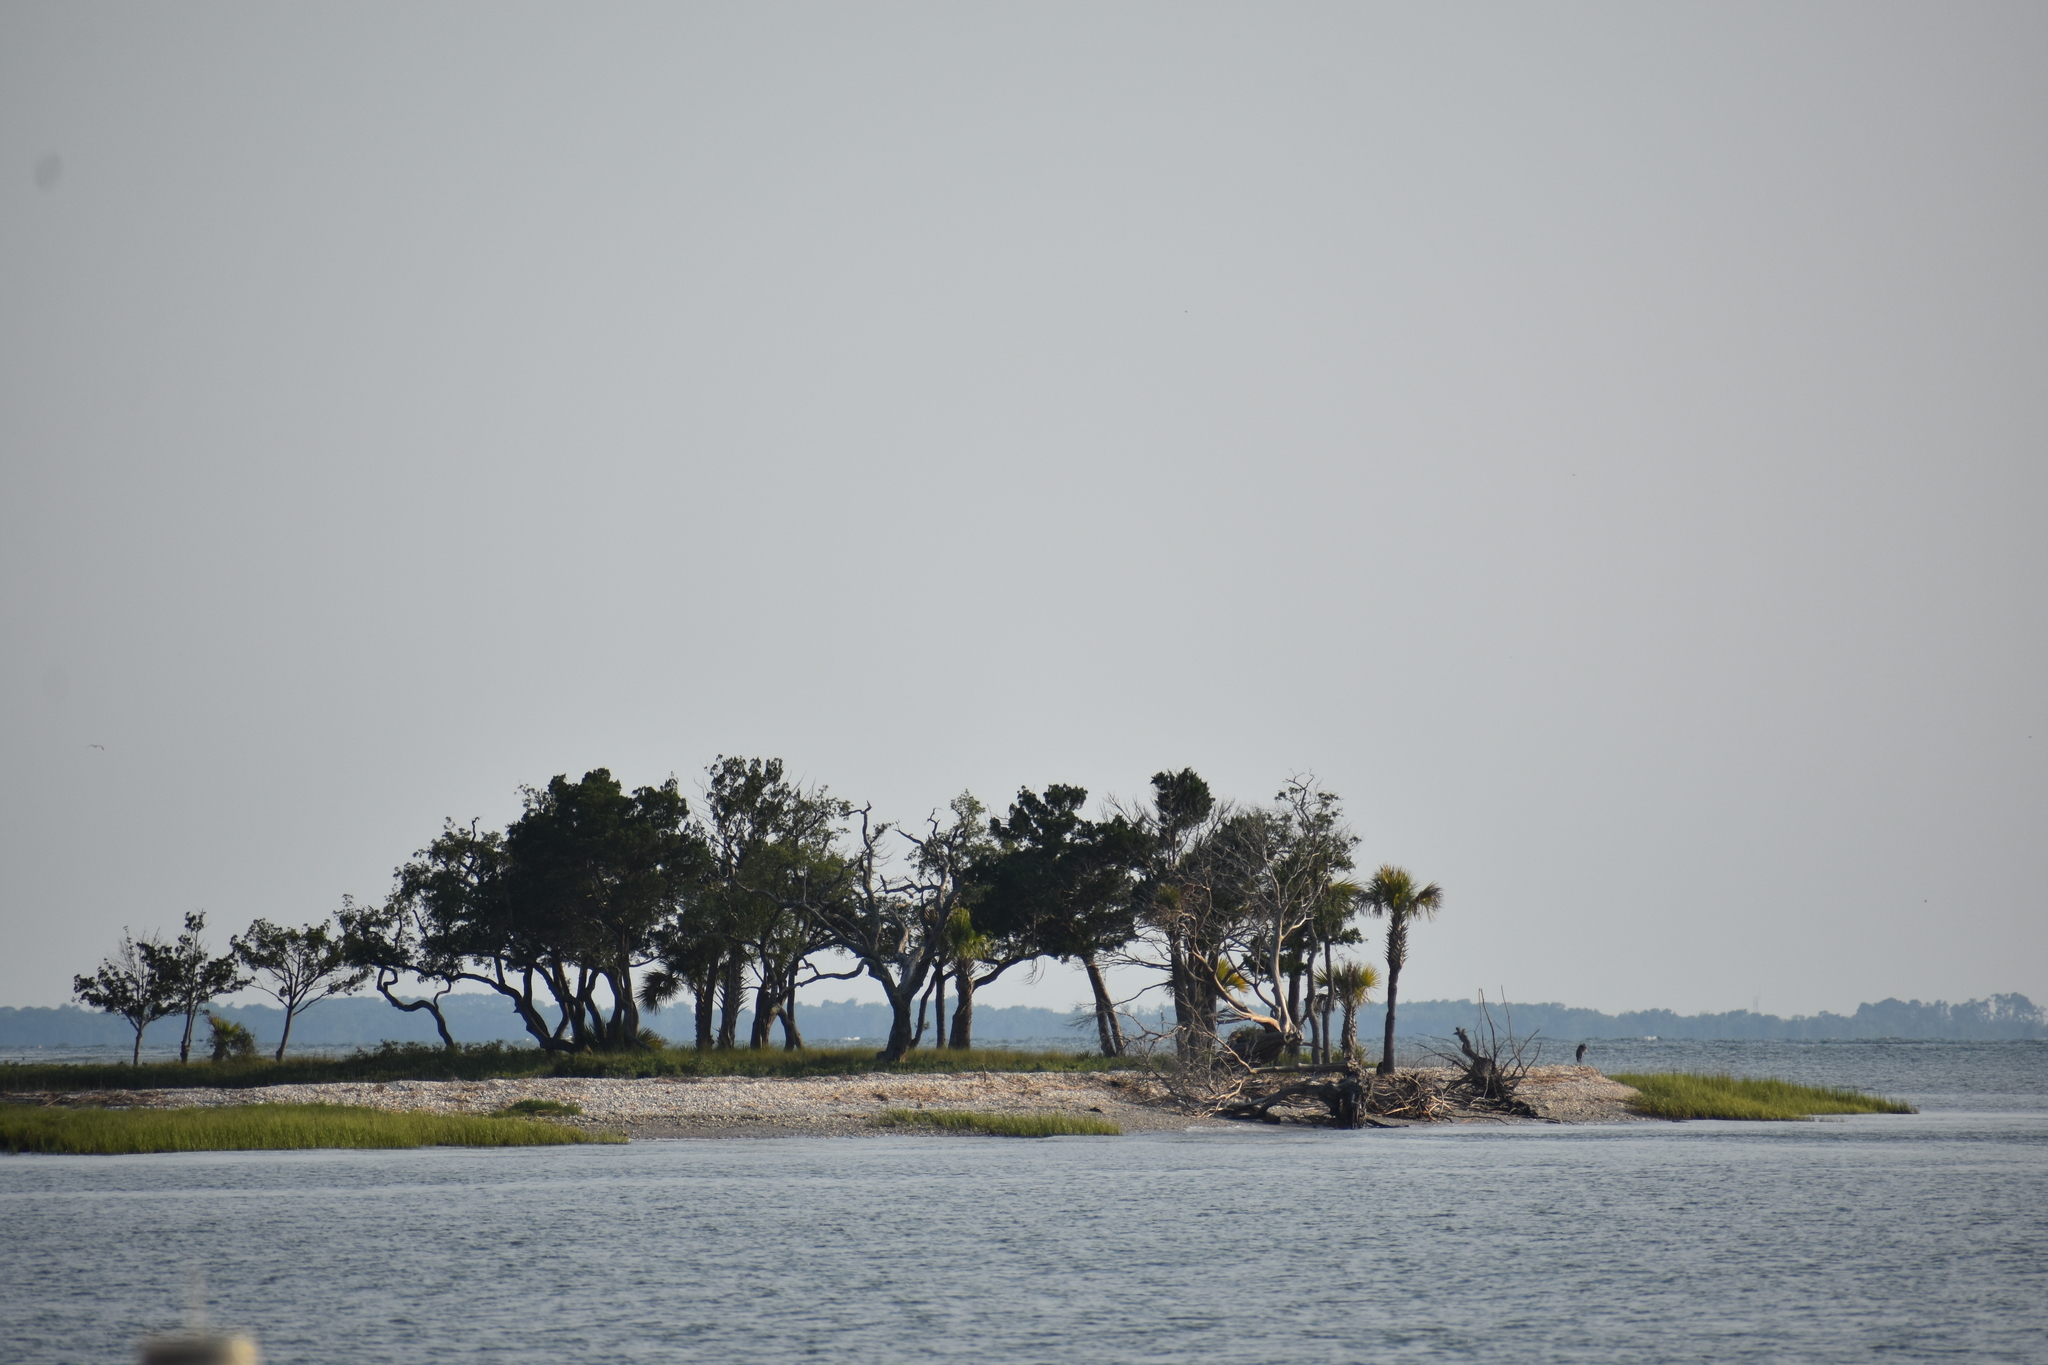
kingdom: Plantae
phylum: Tracheophyta
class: Liliopsida
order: Arecales
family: Arecaceae
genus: Sabal
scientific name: Sabal palmetto
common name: Blue palmetto
